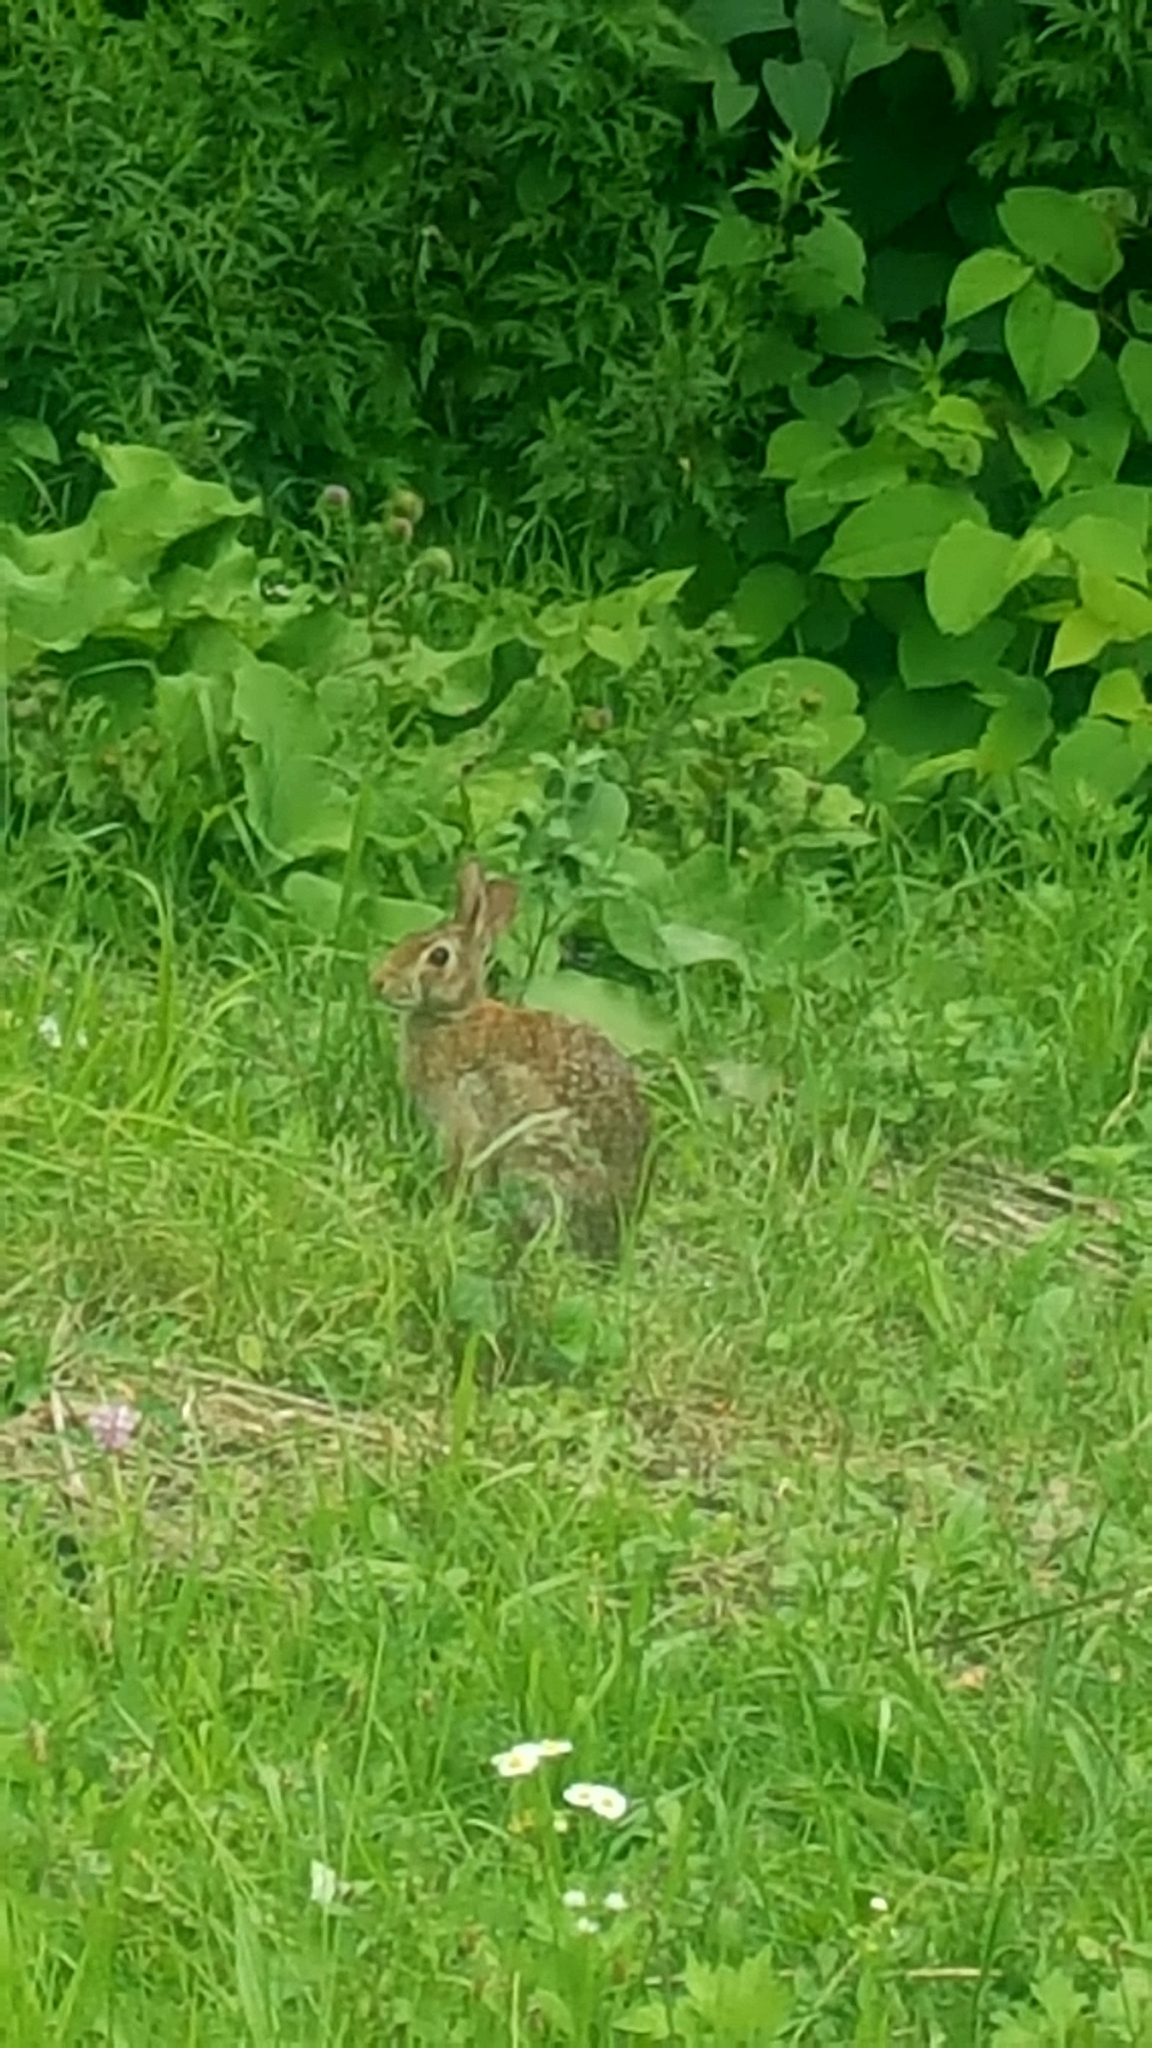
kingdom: Animalia
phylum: Chordata
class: Mammalia
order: Lagomorpha
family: Leporidae
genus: Sylvilagus
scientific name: Sylvilagus floridanus
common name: Eastern cottontail
